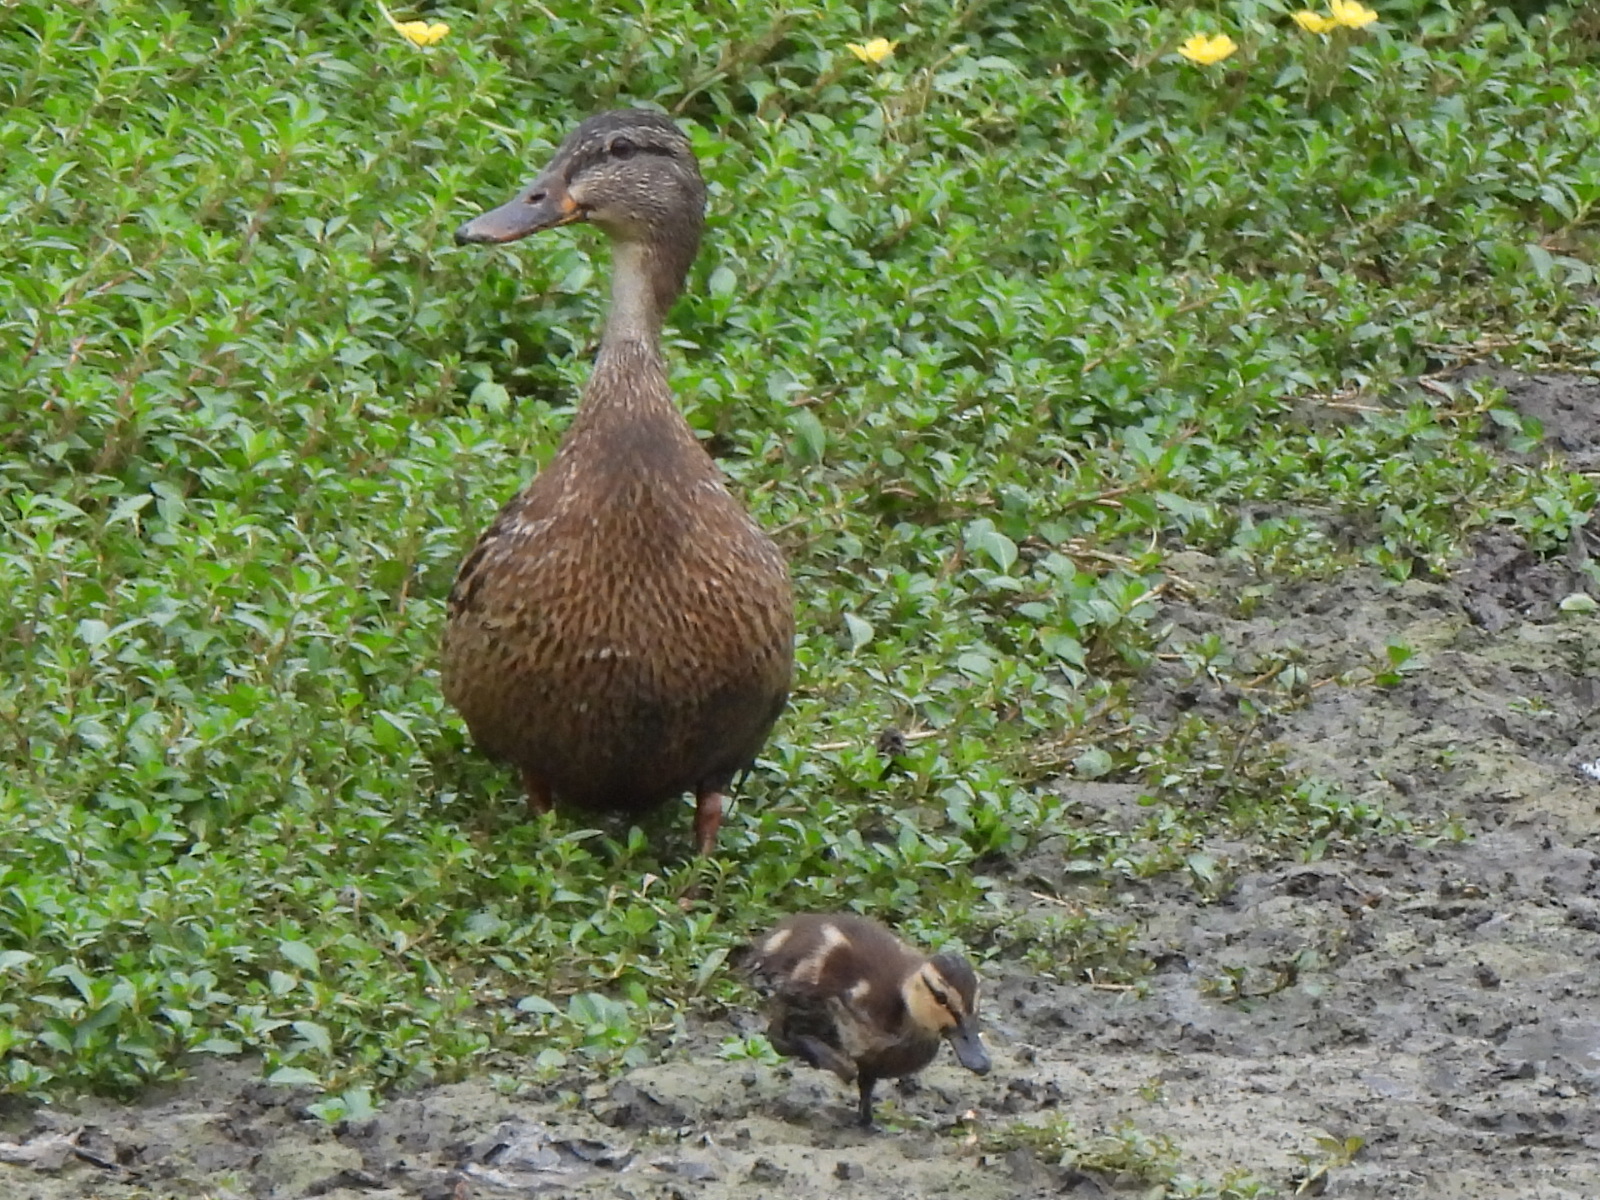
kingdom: Animalia
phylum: Chordata
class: Aves
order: Anseriformes
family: Anatidae
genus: Anas
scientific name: Anas platyrhynchos
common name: Mallard
